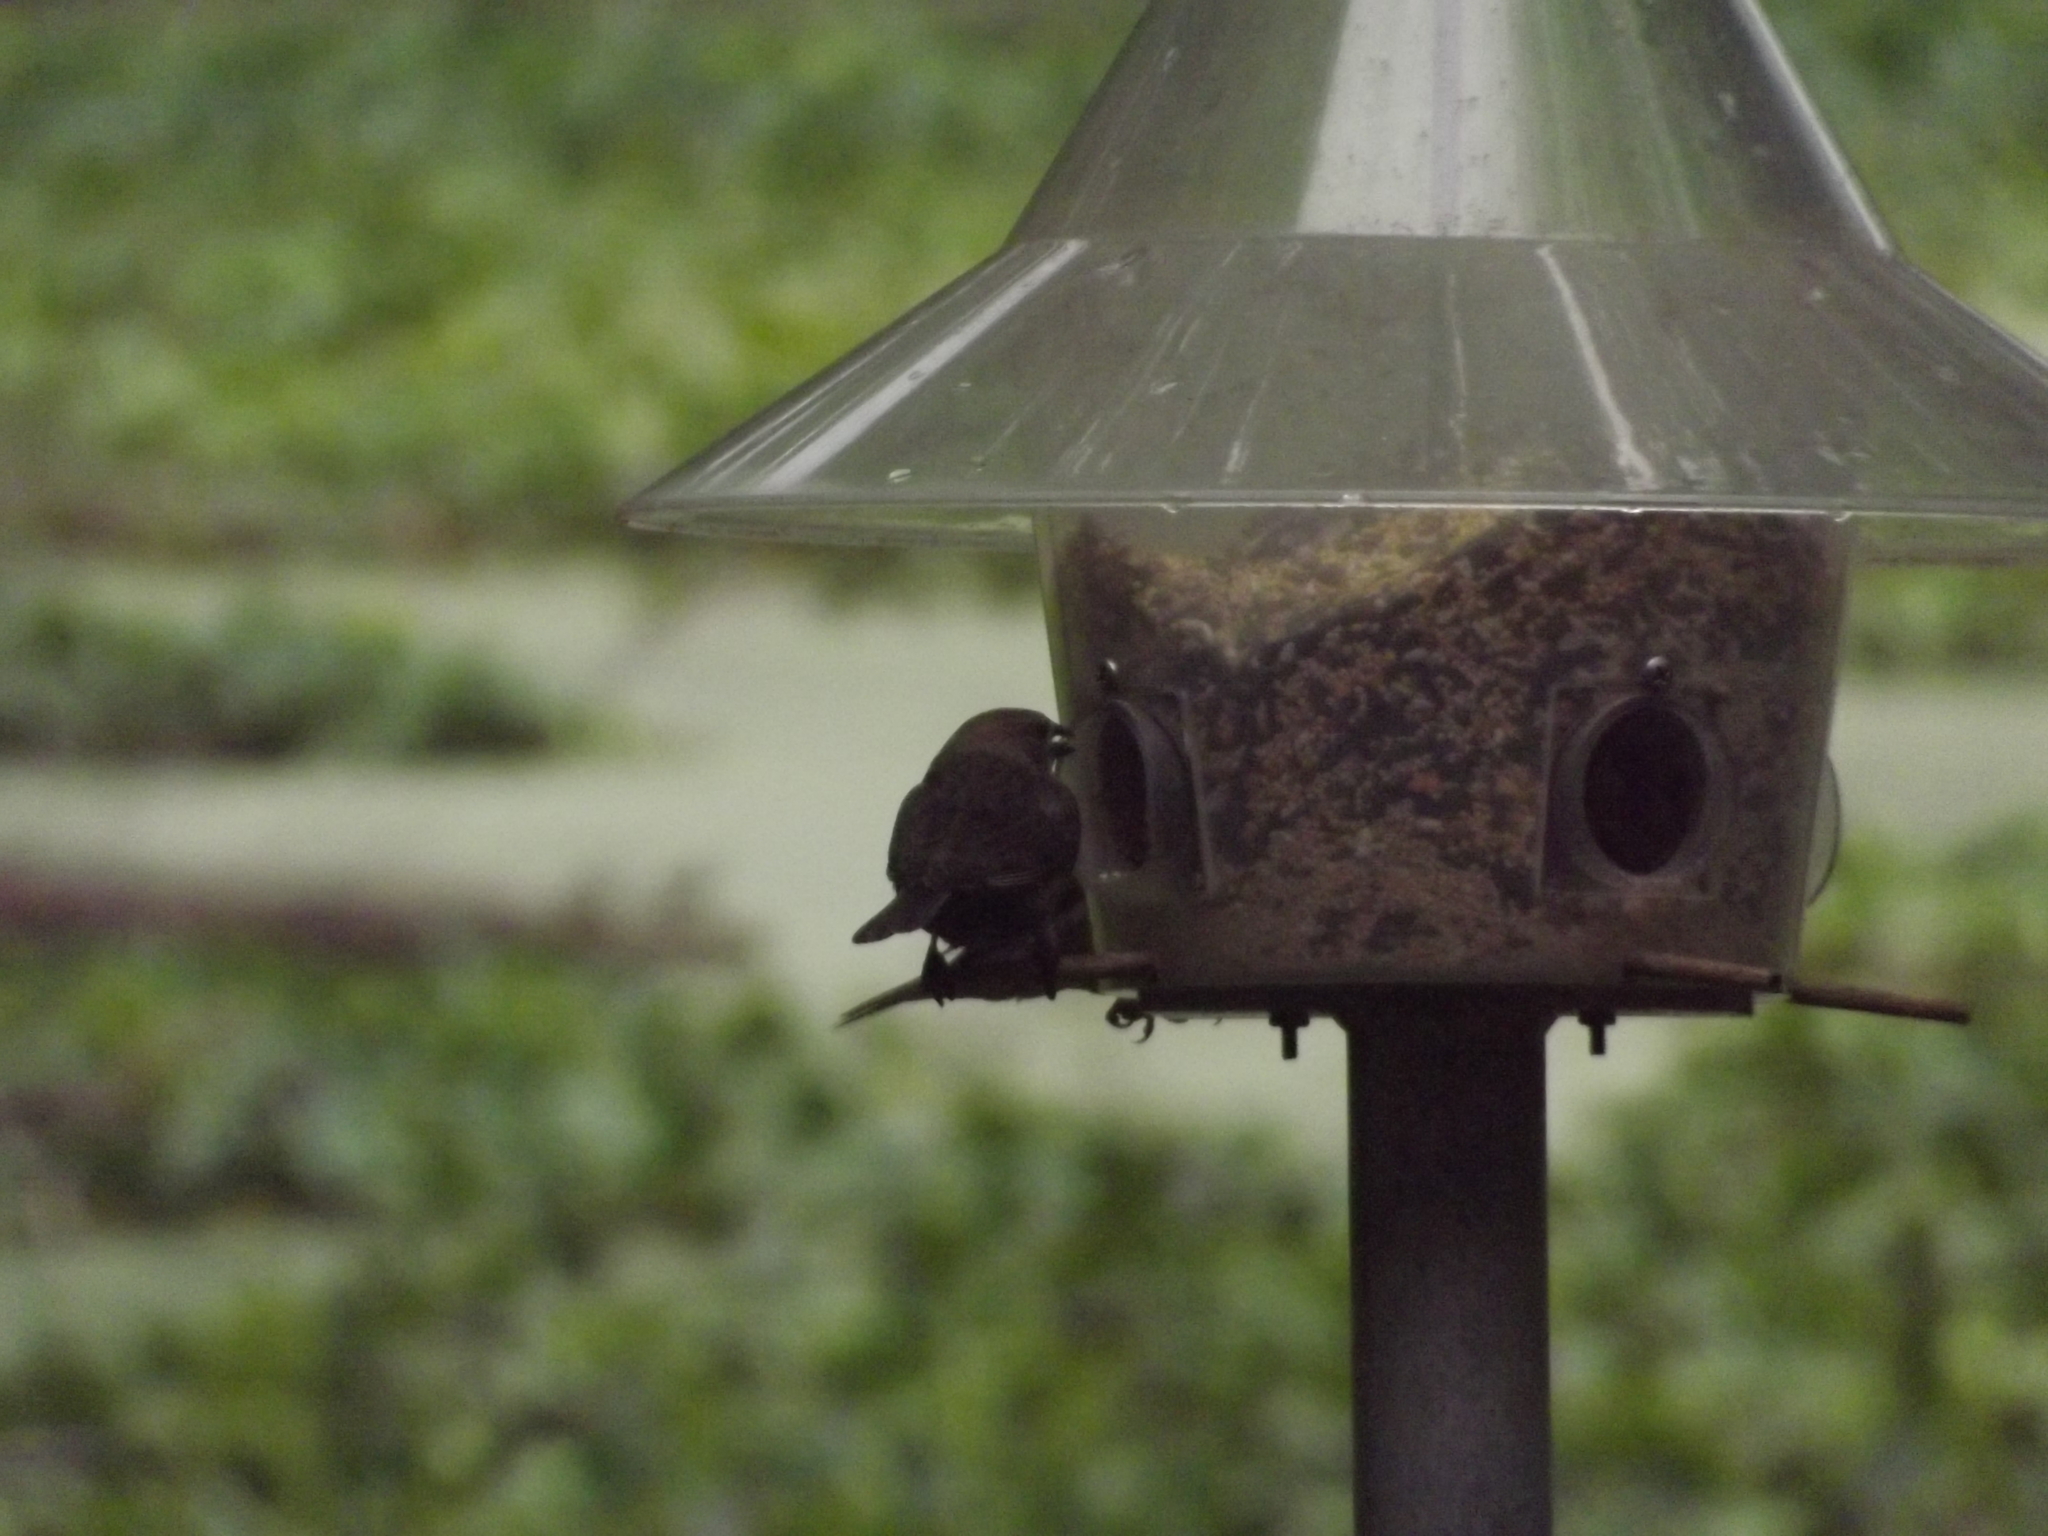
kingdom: Animalia
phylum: Chordata
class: Aves
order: Passeriformes
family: Icteridae
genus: Molothrus
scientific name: Molothrus ater
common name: Brown-headed cowbird
